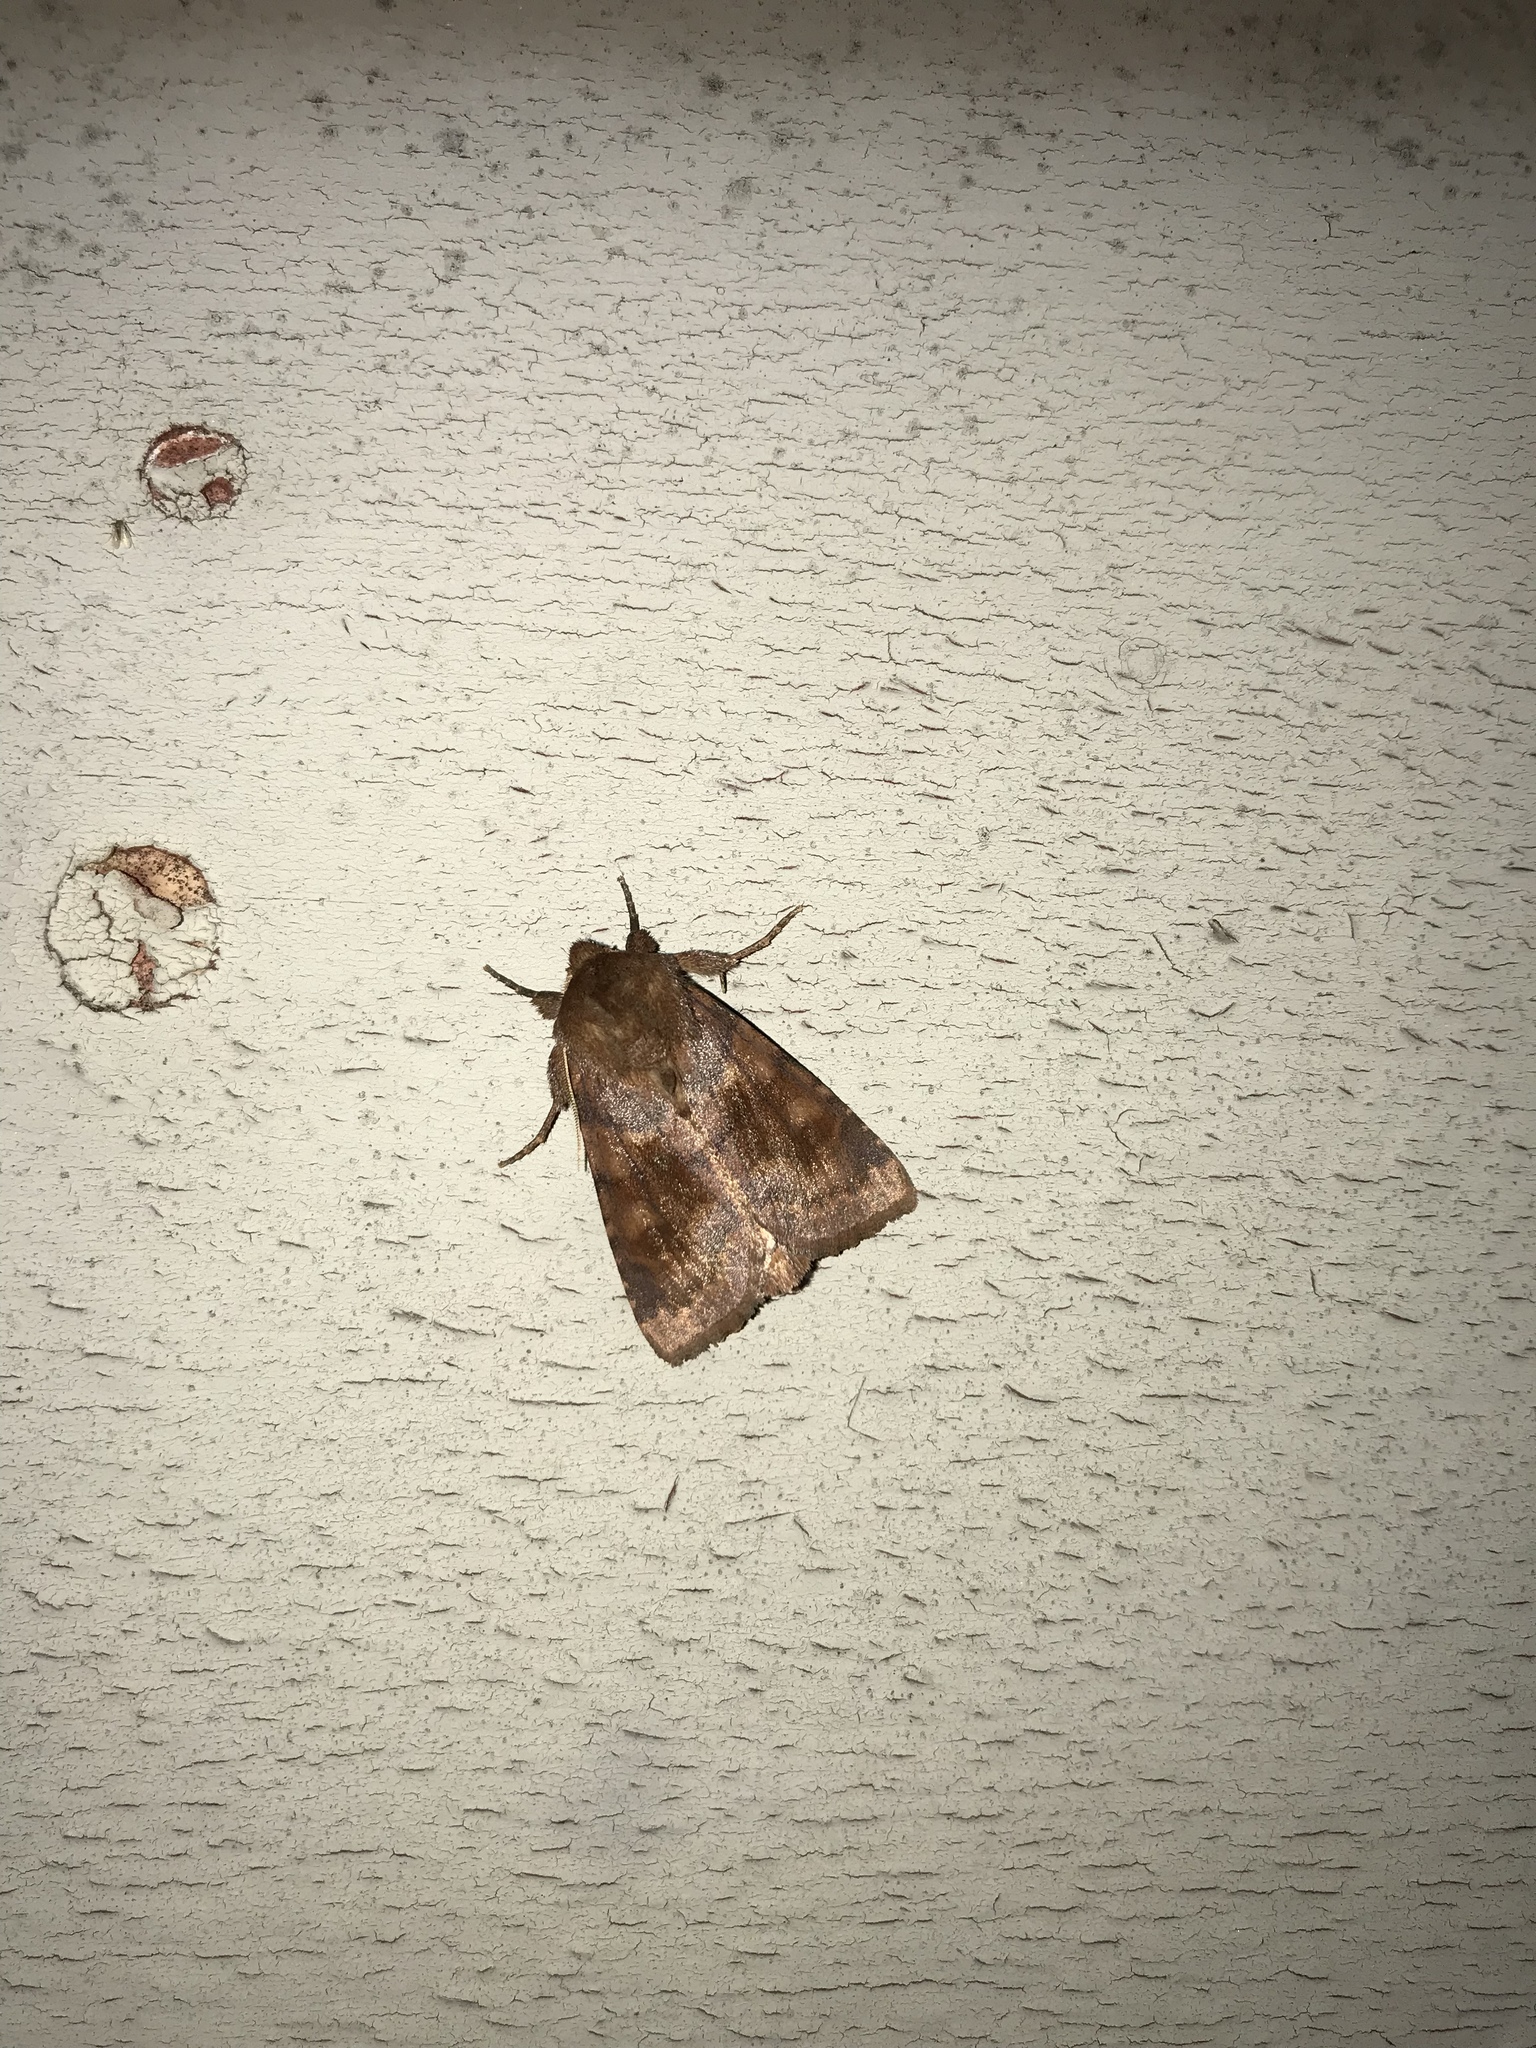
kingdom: Animalia
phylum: Arthropoda
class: Insecta
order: Lepidoptera
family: Noctuidae
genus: Nephelodes
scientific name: Nephelodes minians
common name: Bronzed cutworm
